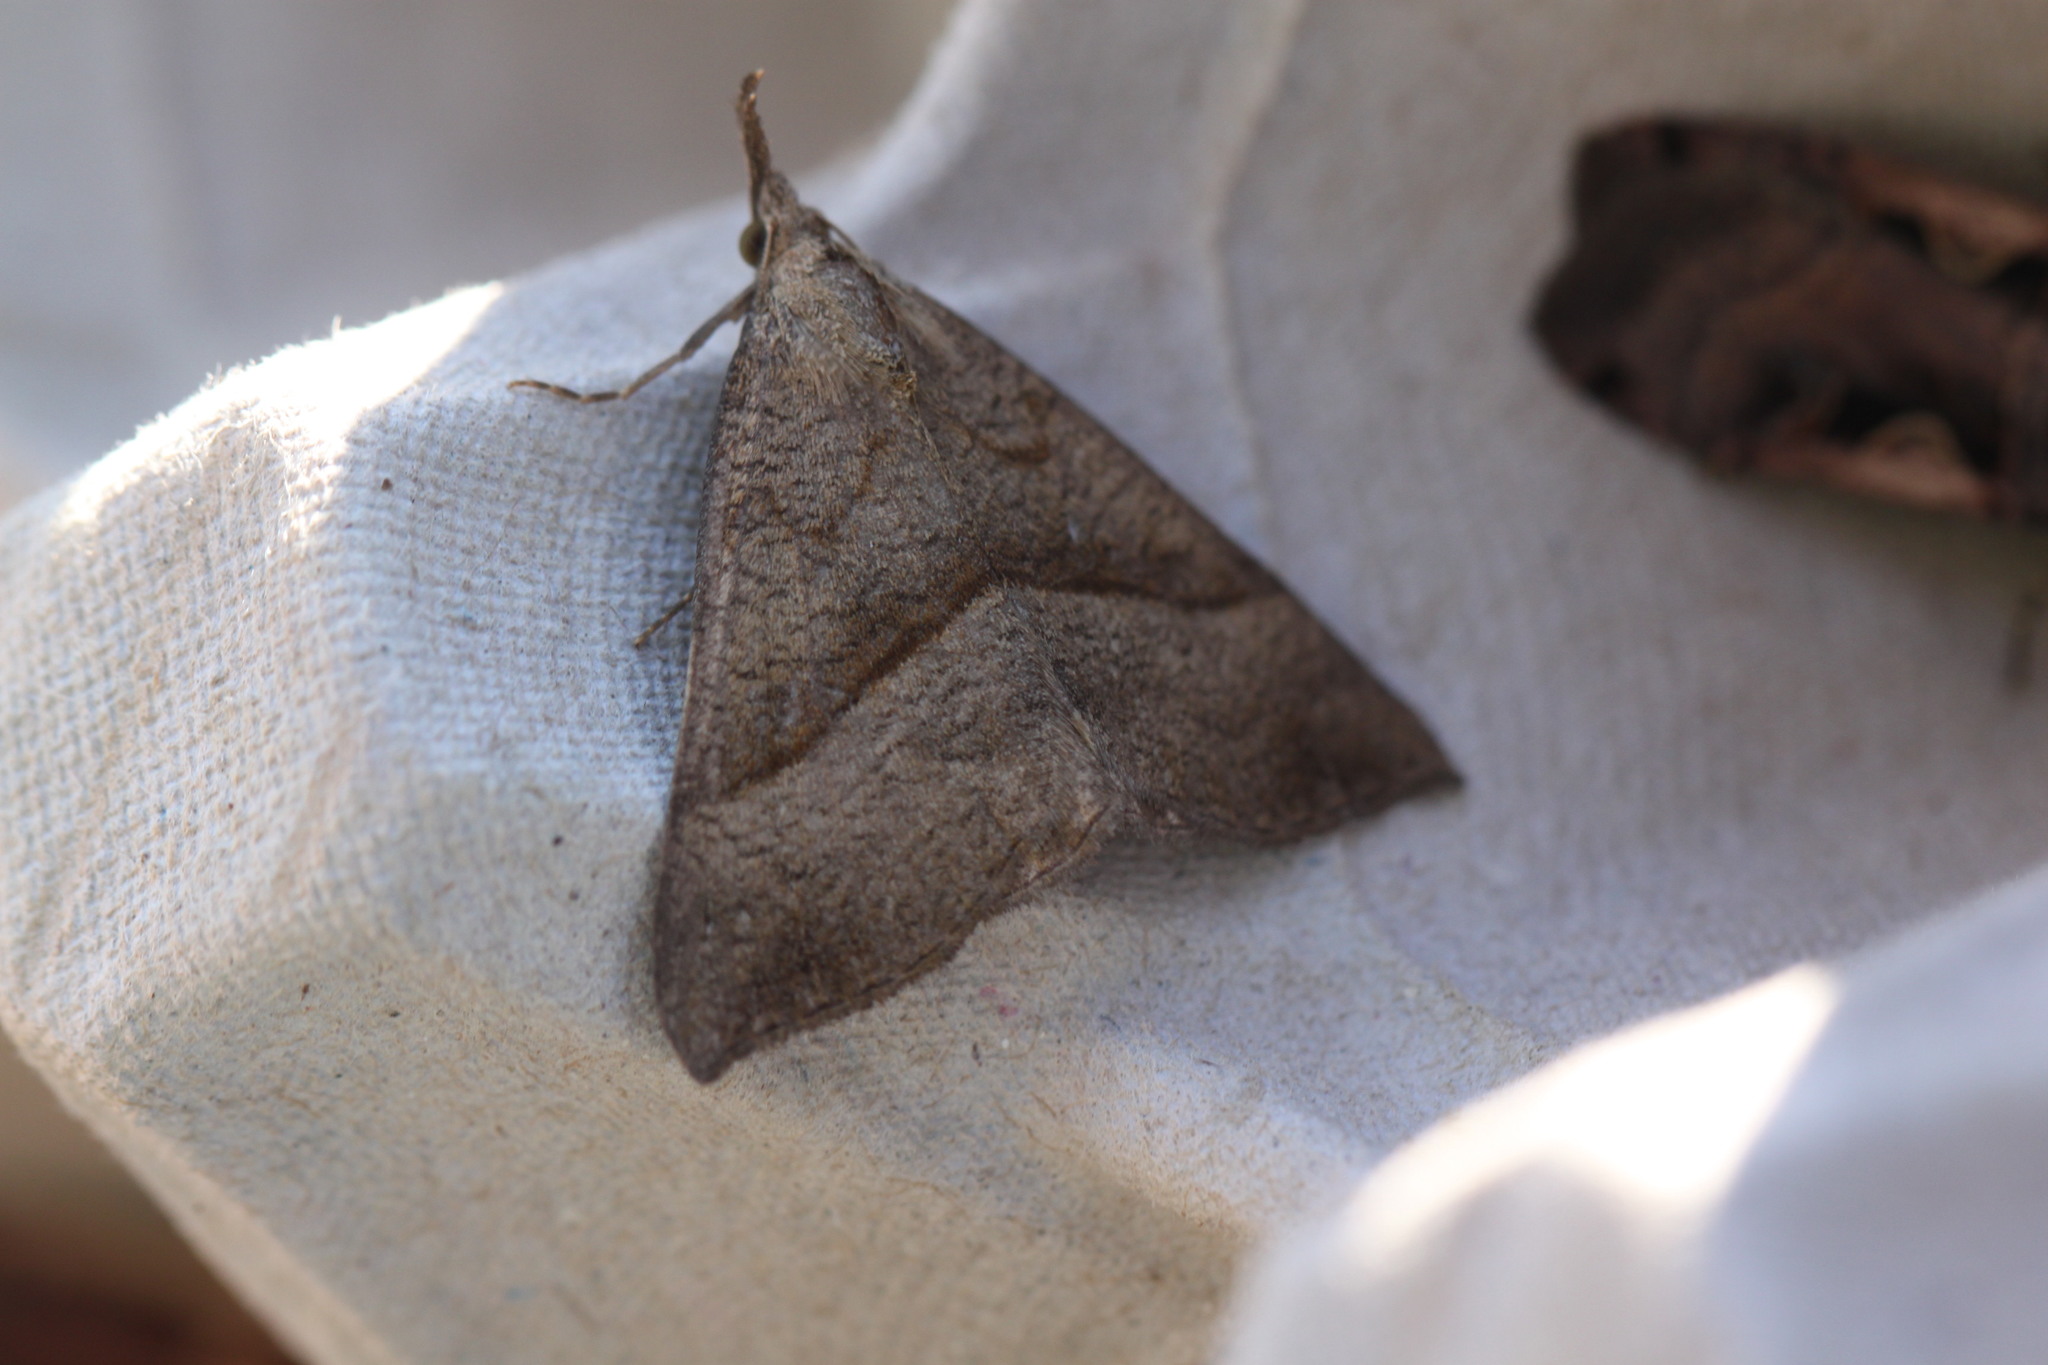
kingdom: Animalia
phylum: Arthropoda
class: Insecta
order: Lepidoptera
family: Erebidae
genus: Hypena
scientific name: Hypena proboscidalis
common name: Snout
